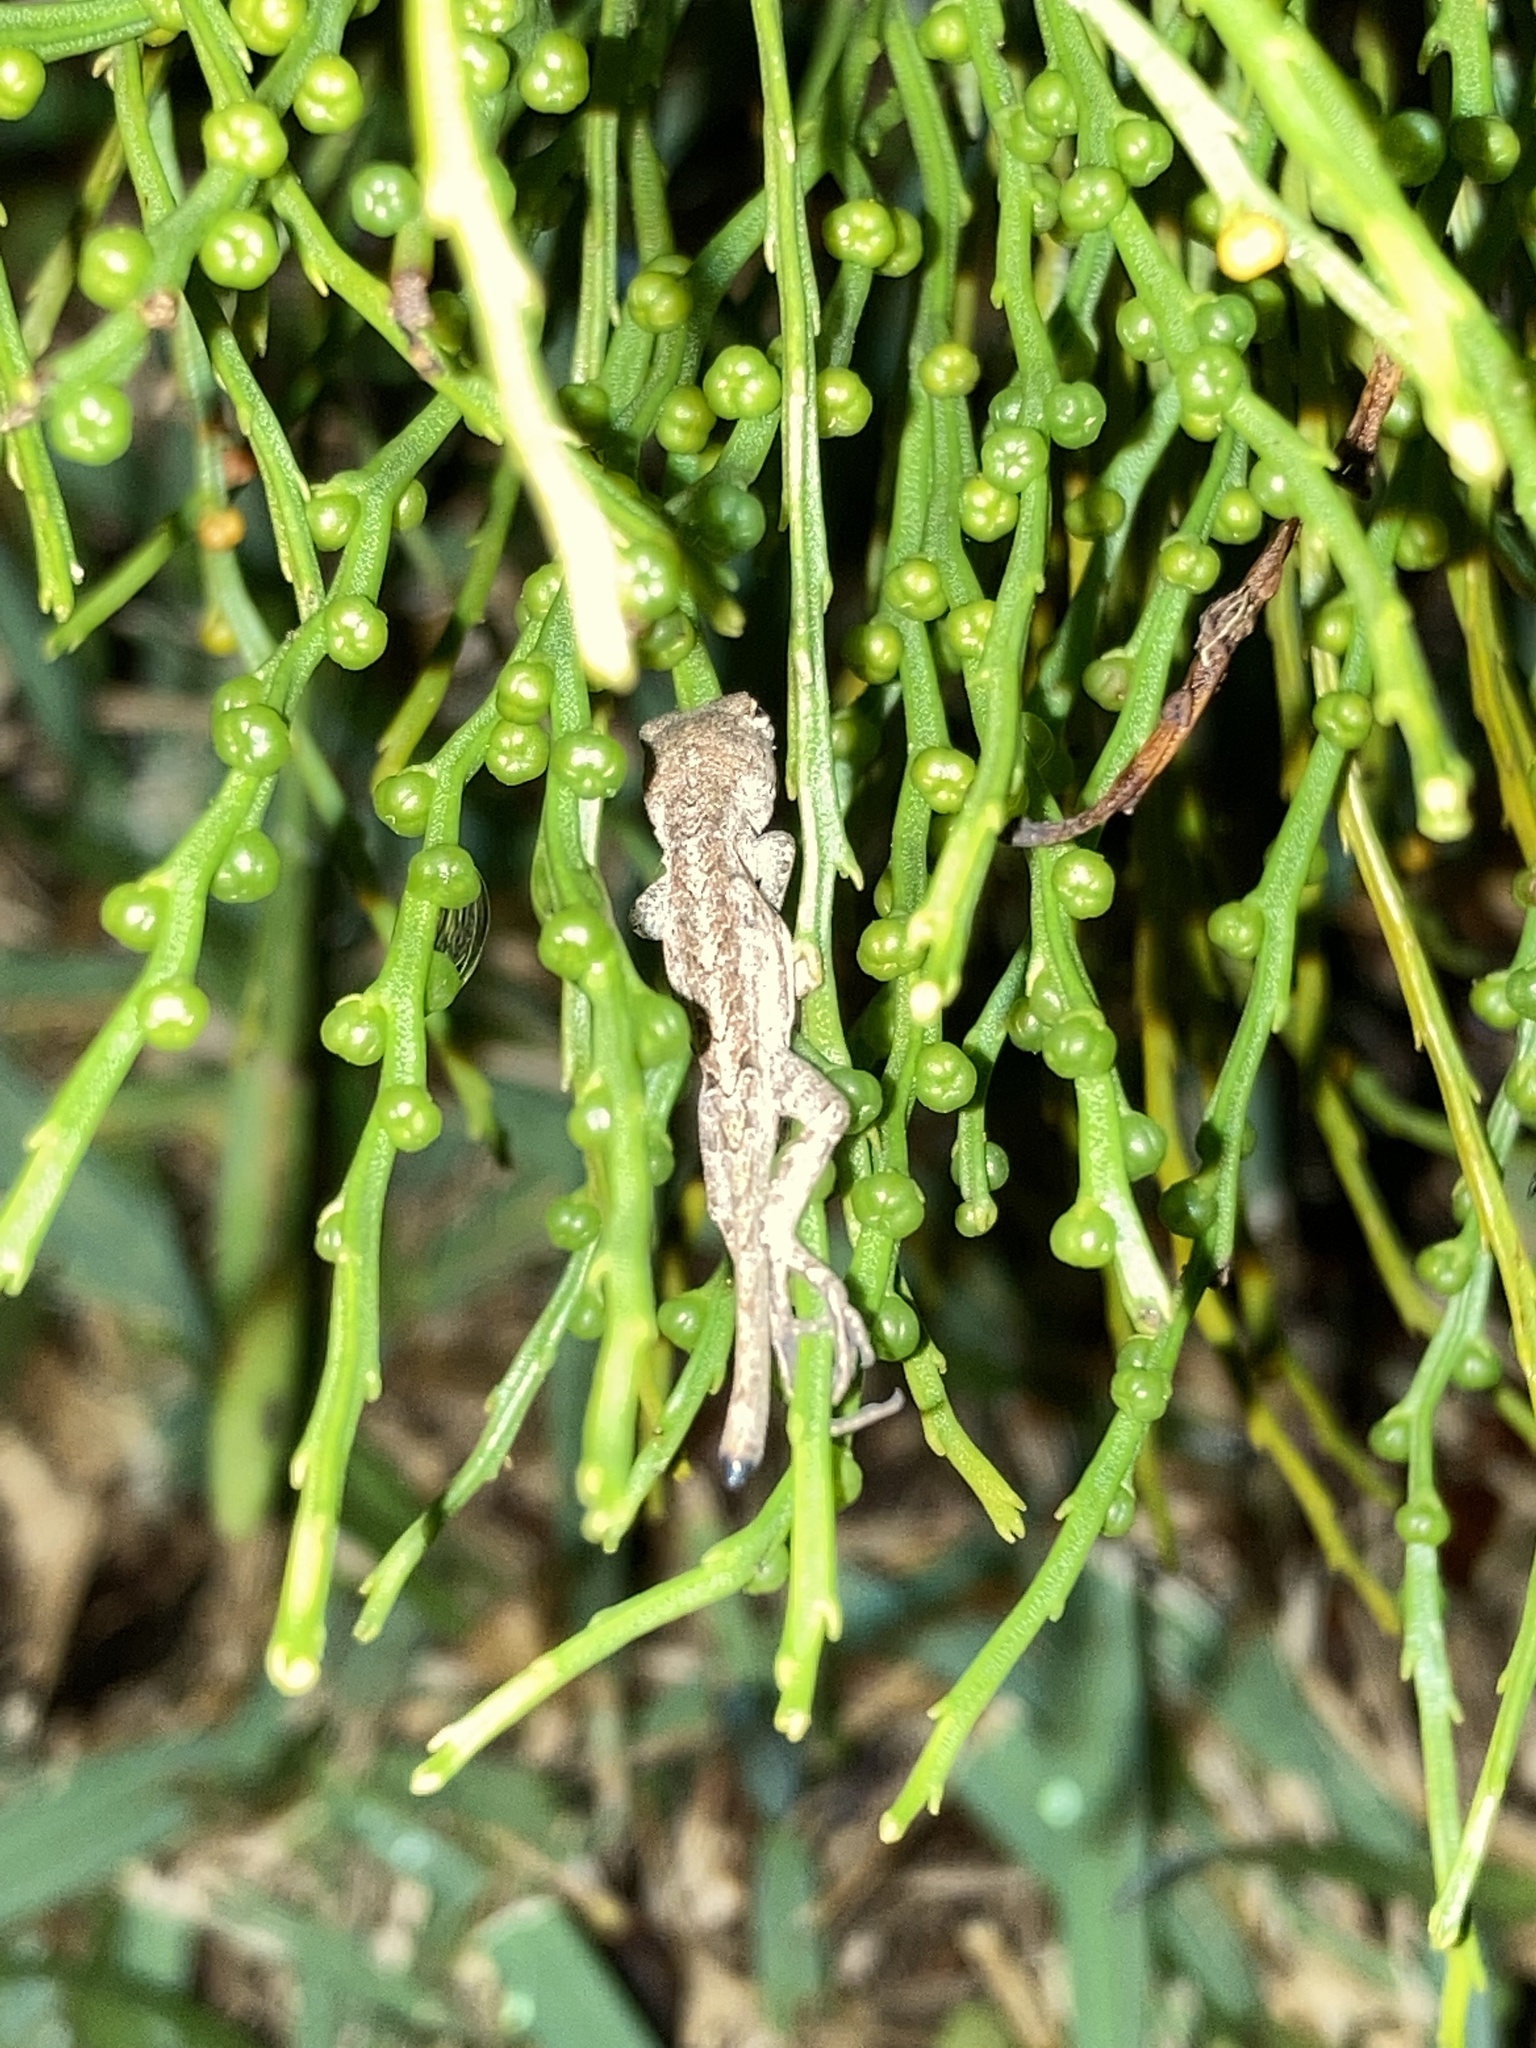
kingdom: Animalia
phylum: Chordata
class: Squamata
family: Dactyloidae
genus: Anolis
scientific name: Anolis sagrei
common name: Brown anole
